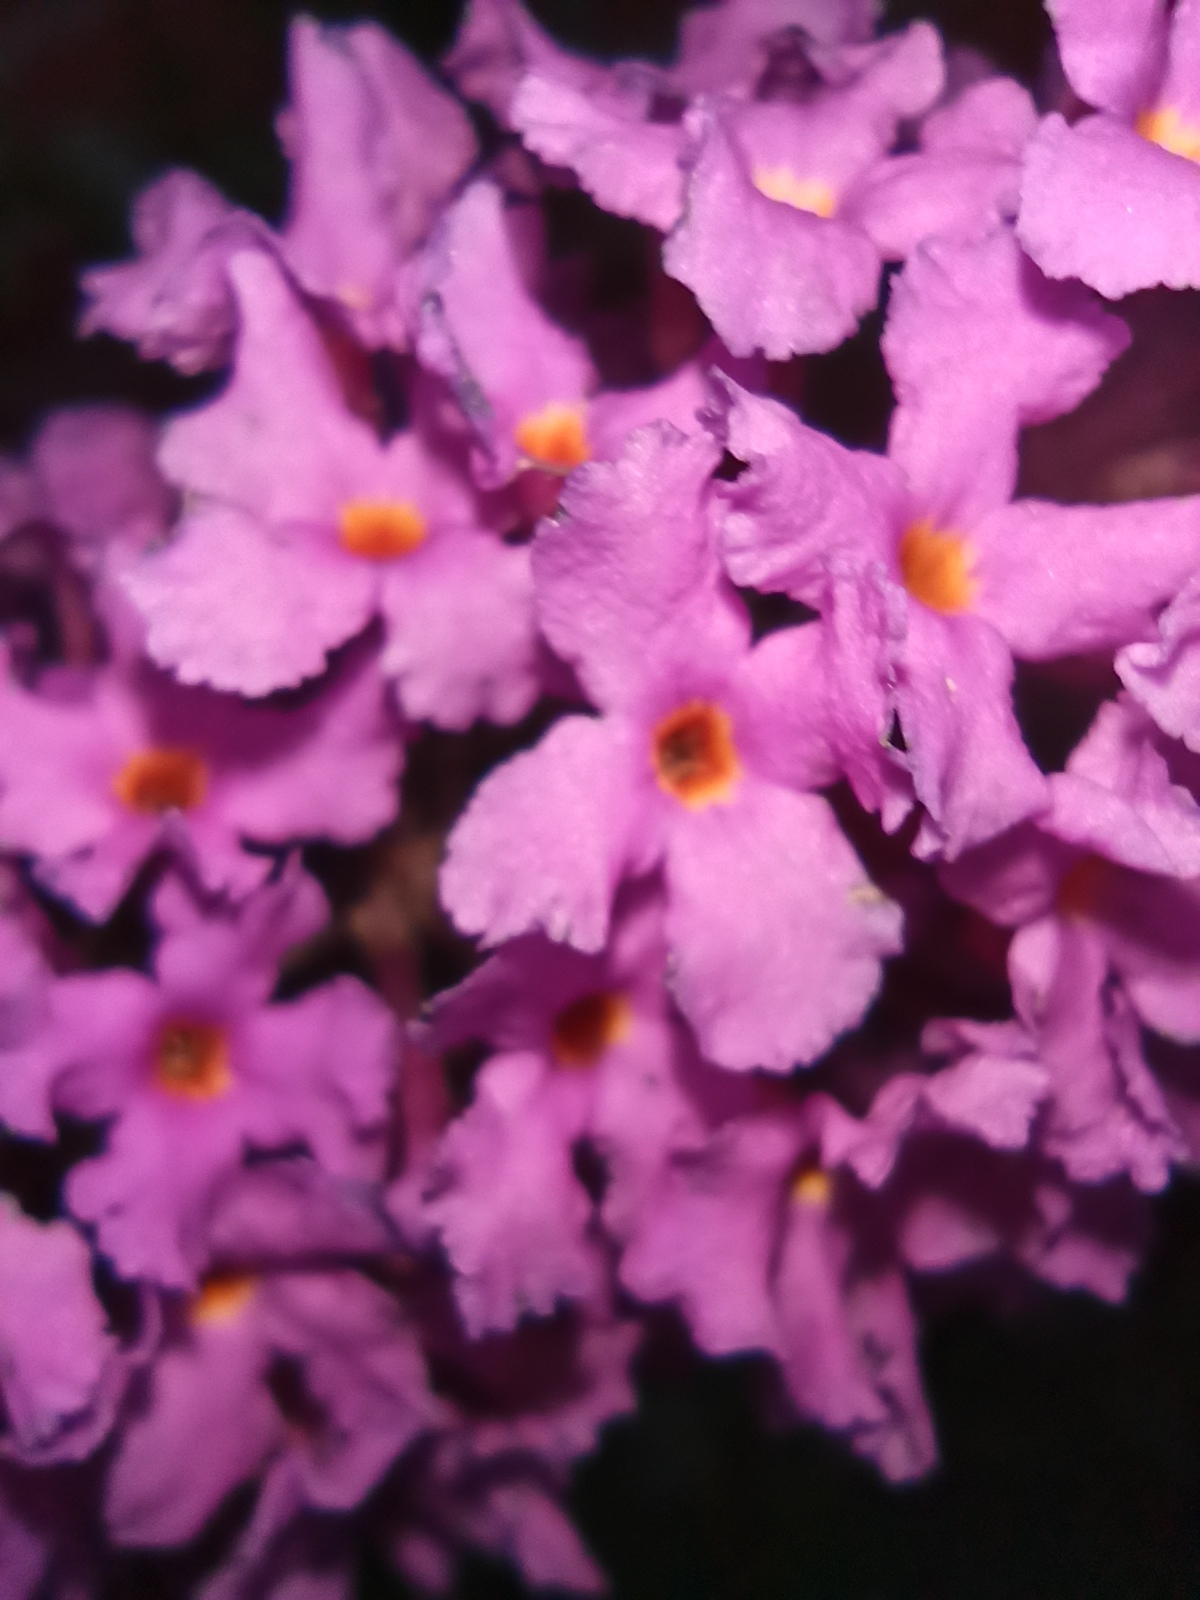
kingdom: Plantae
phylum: Tracheophyta
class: Magnoliopsida
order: Lamiales
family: Scrophulariaceae
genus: Buddleja
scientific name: Buddleja davidii
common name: Butterfly-bush
